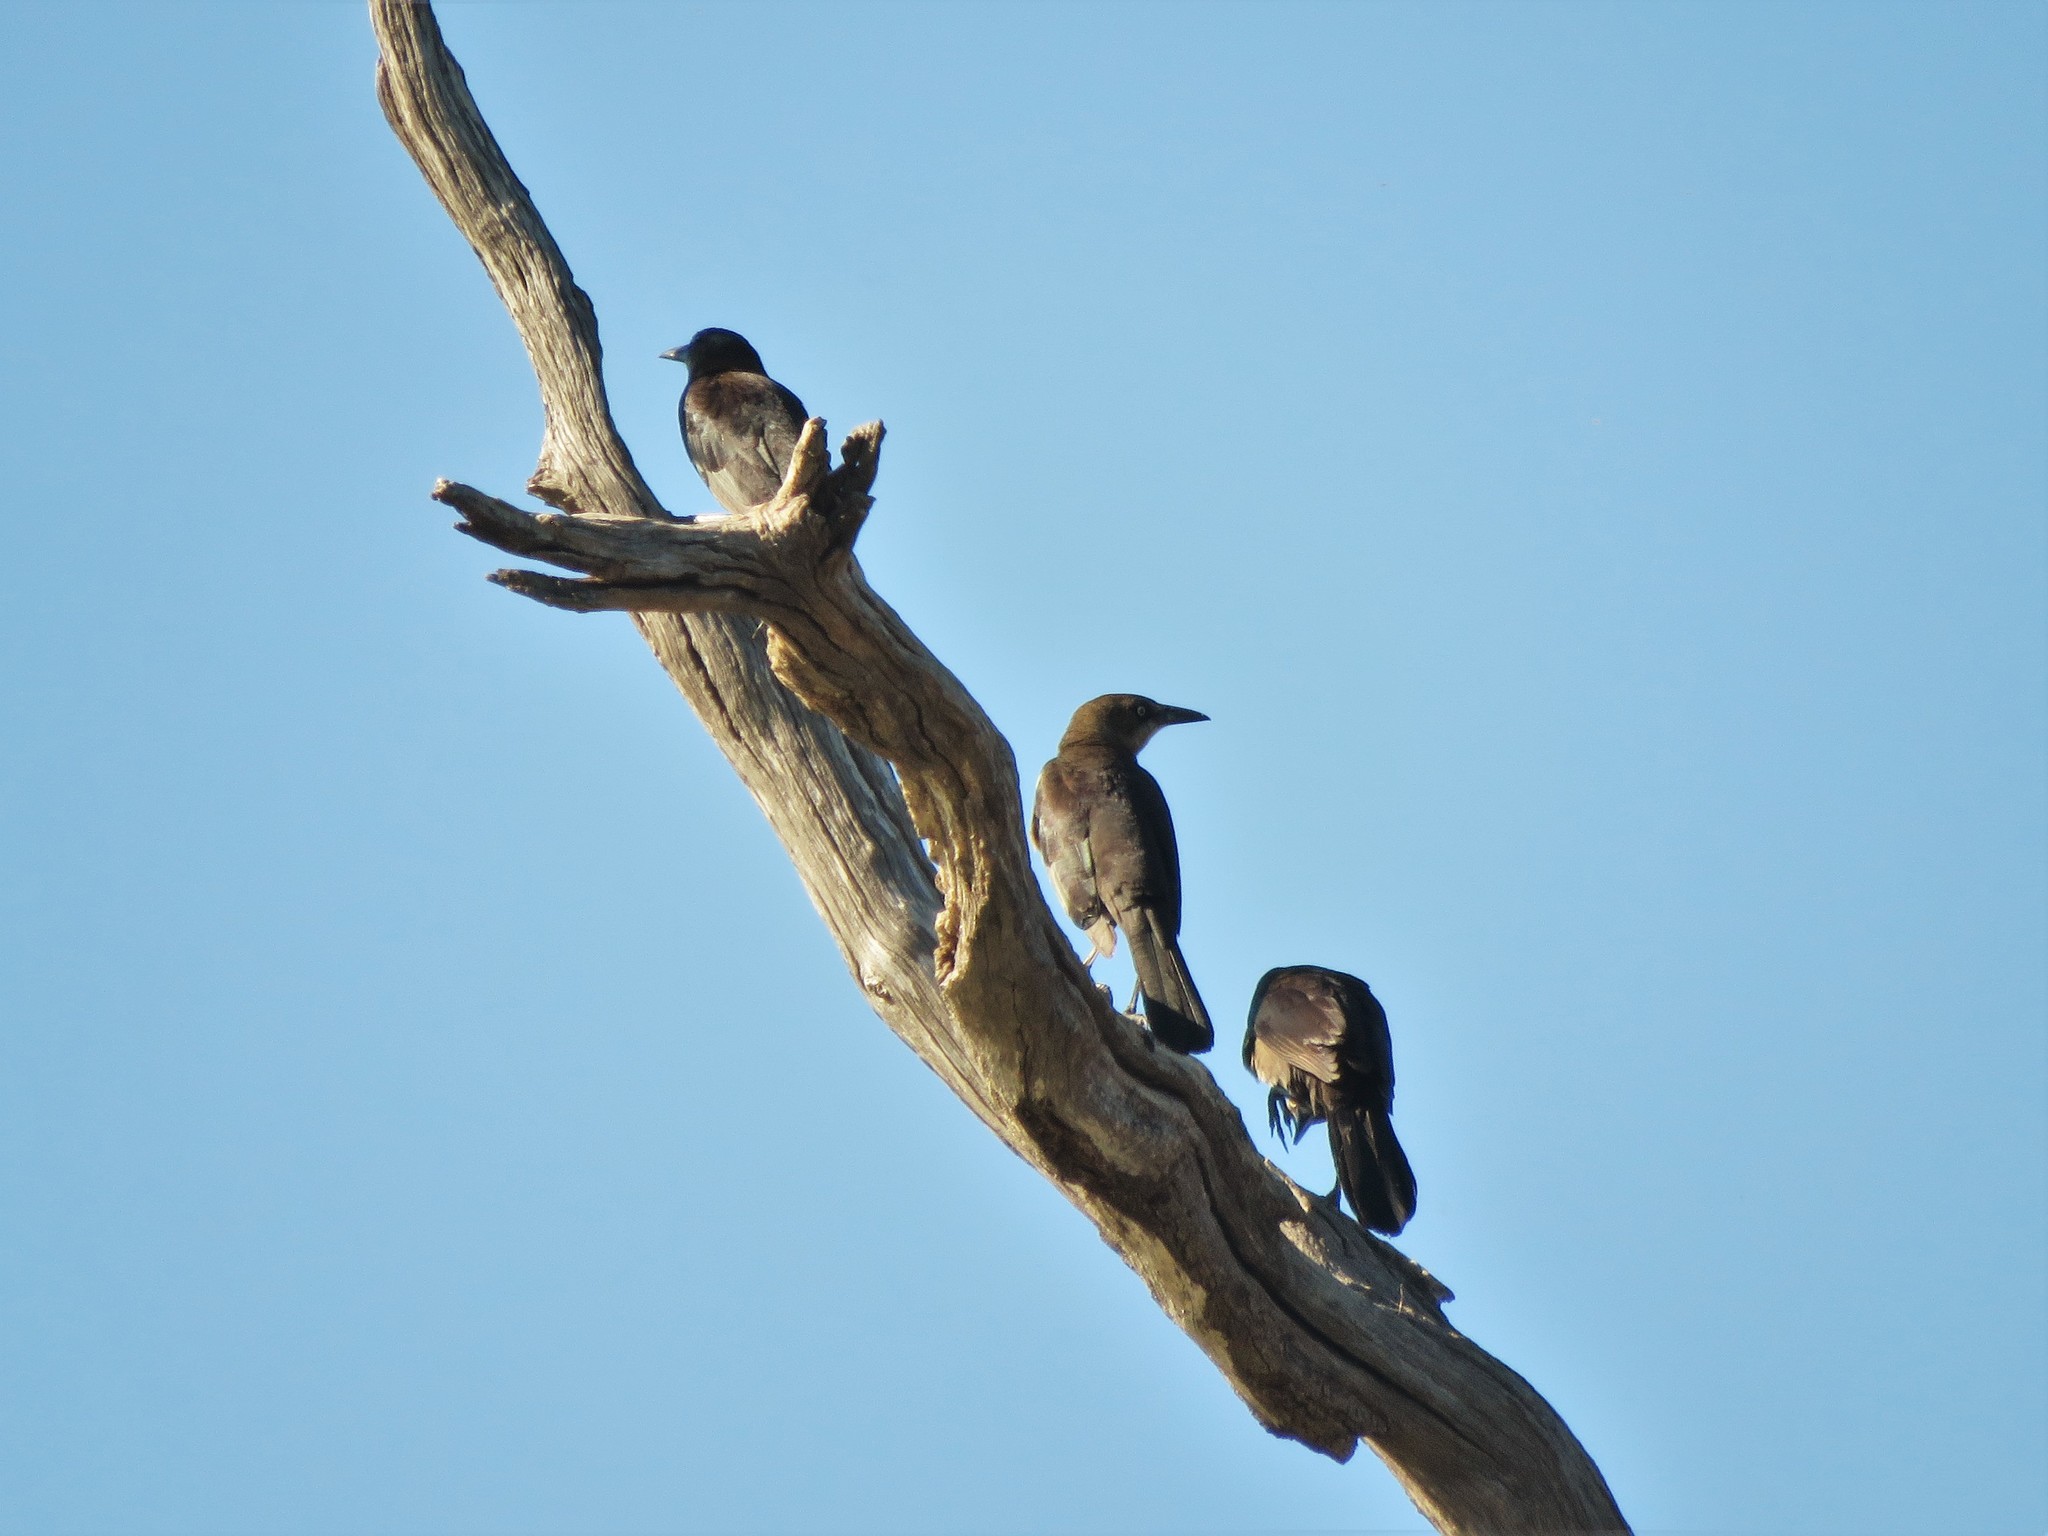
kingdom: Animalia
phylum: Chordata
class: Aves
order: Passeriformes
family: Icteridae
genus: Quiscalus
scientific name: Quiscalus mexicanus
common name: Great-tailed grackle
